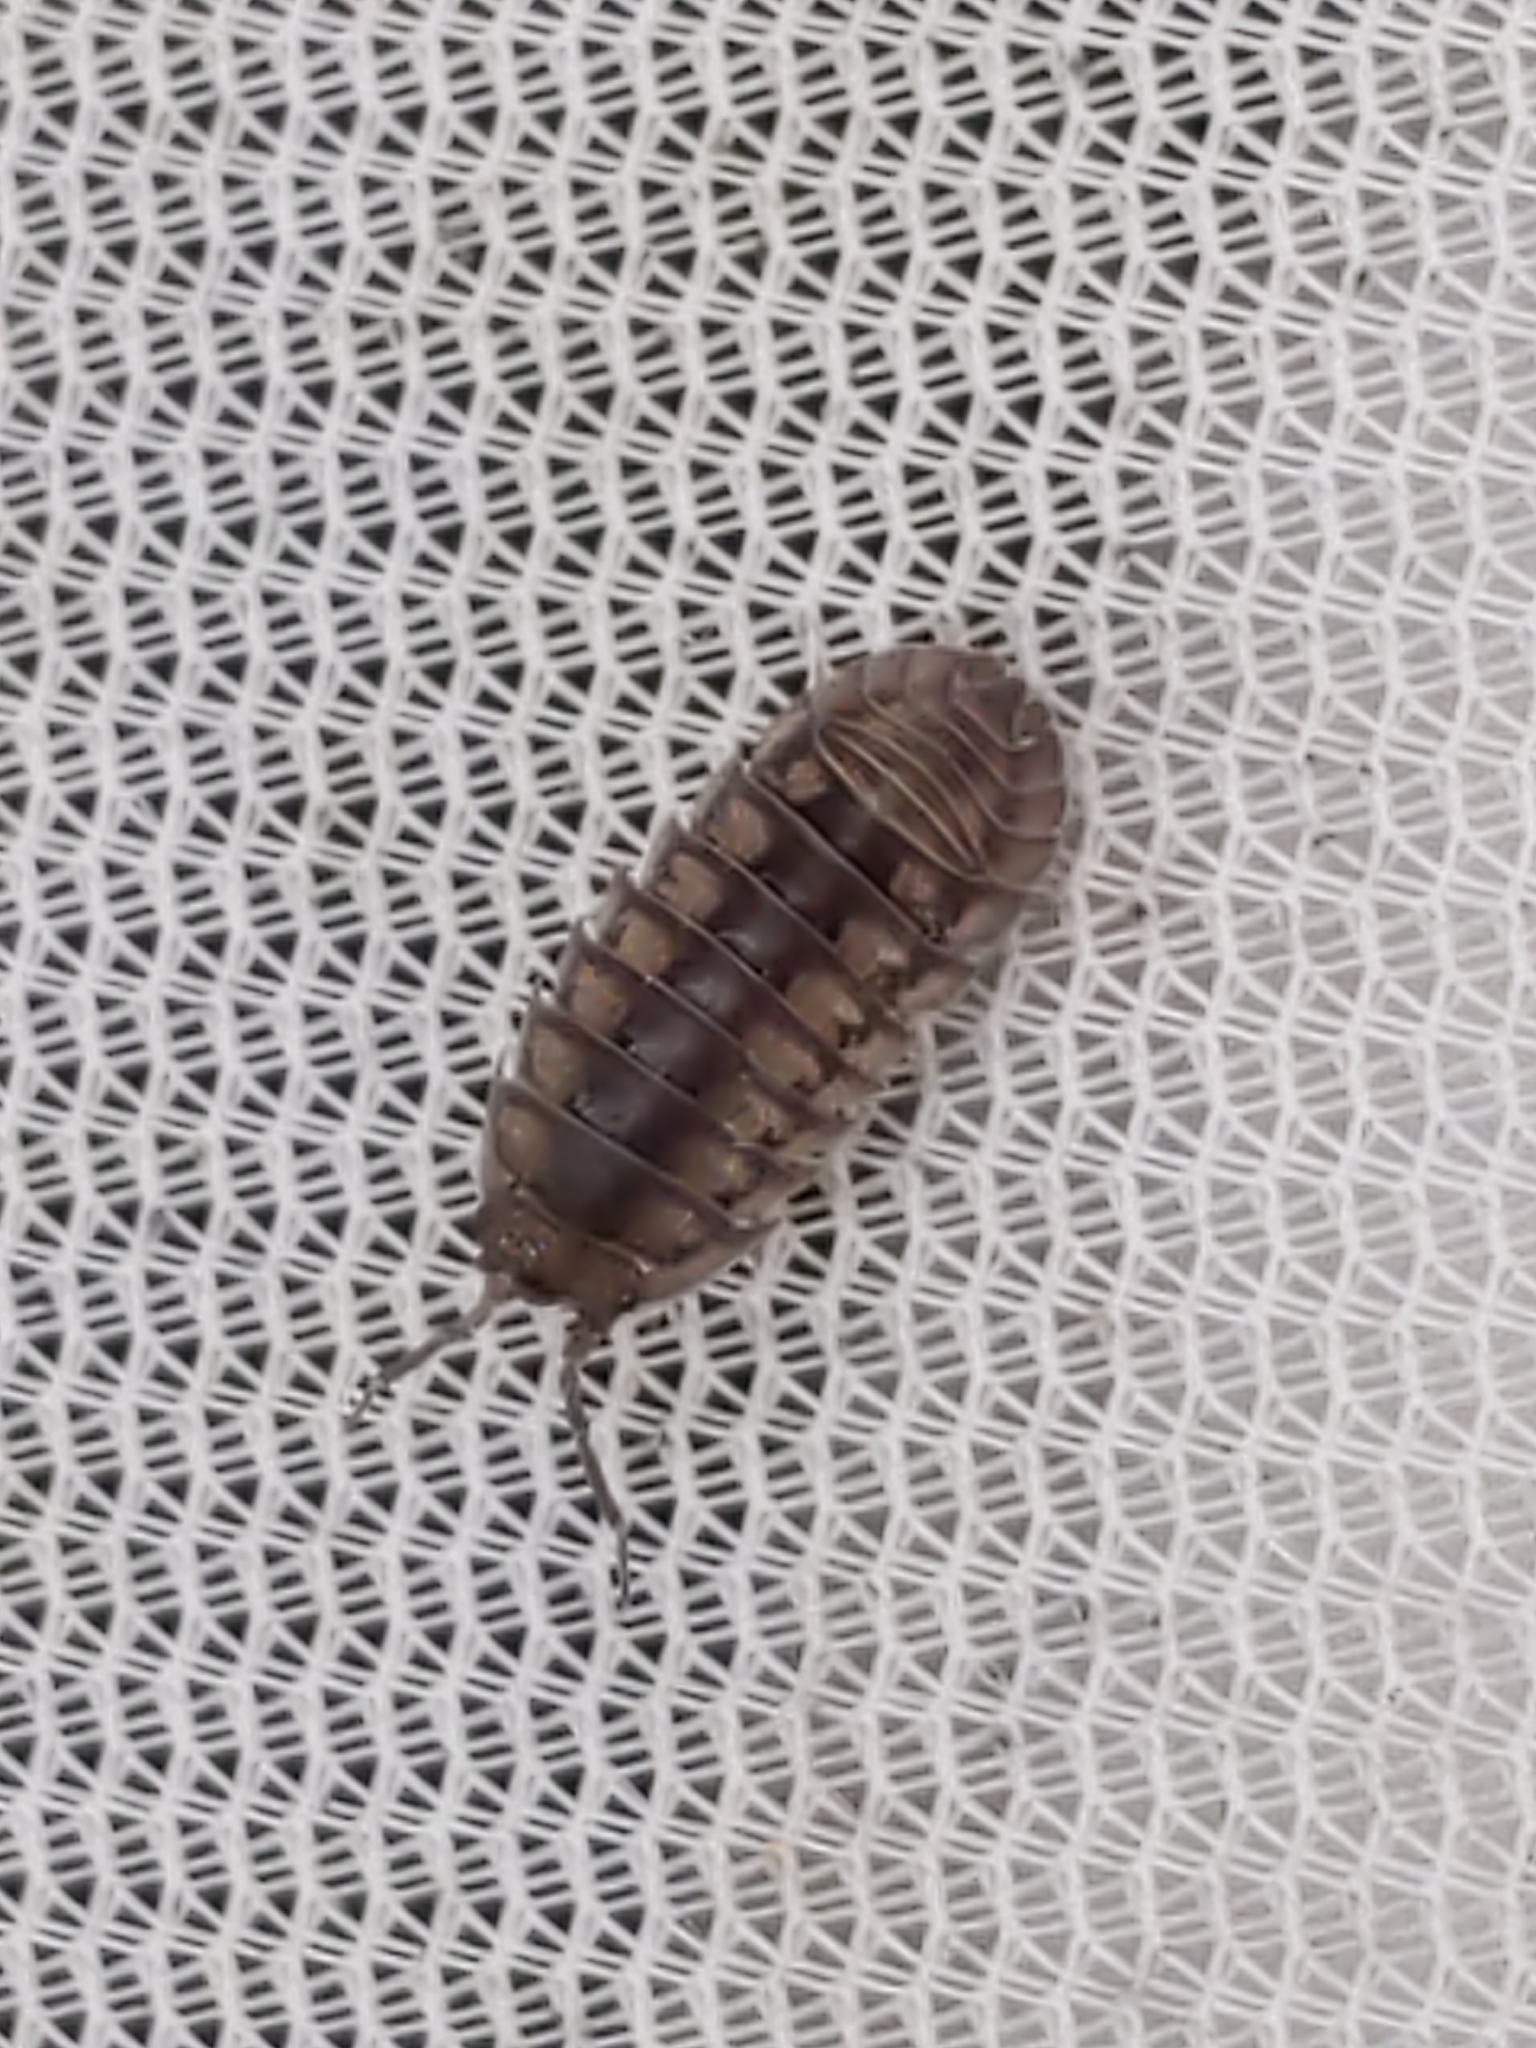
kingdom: Animalia
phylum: Arthropoda
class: Malacostraca
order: Isopoda
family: Armadillidiidae
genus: Armadillidium
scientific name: Armadillidium nasatum
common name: Isopod
